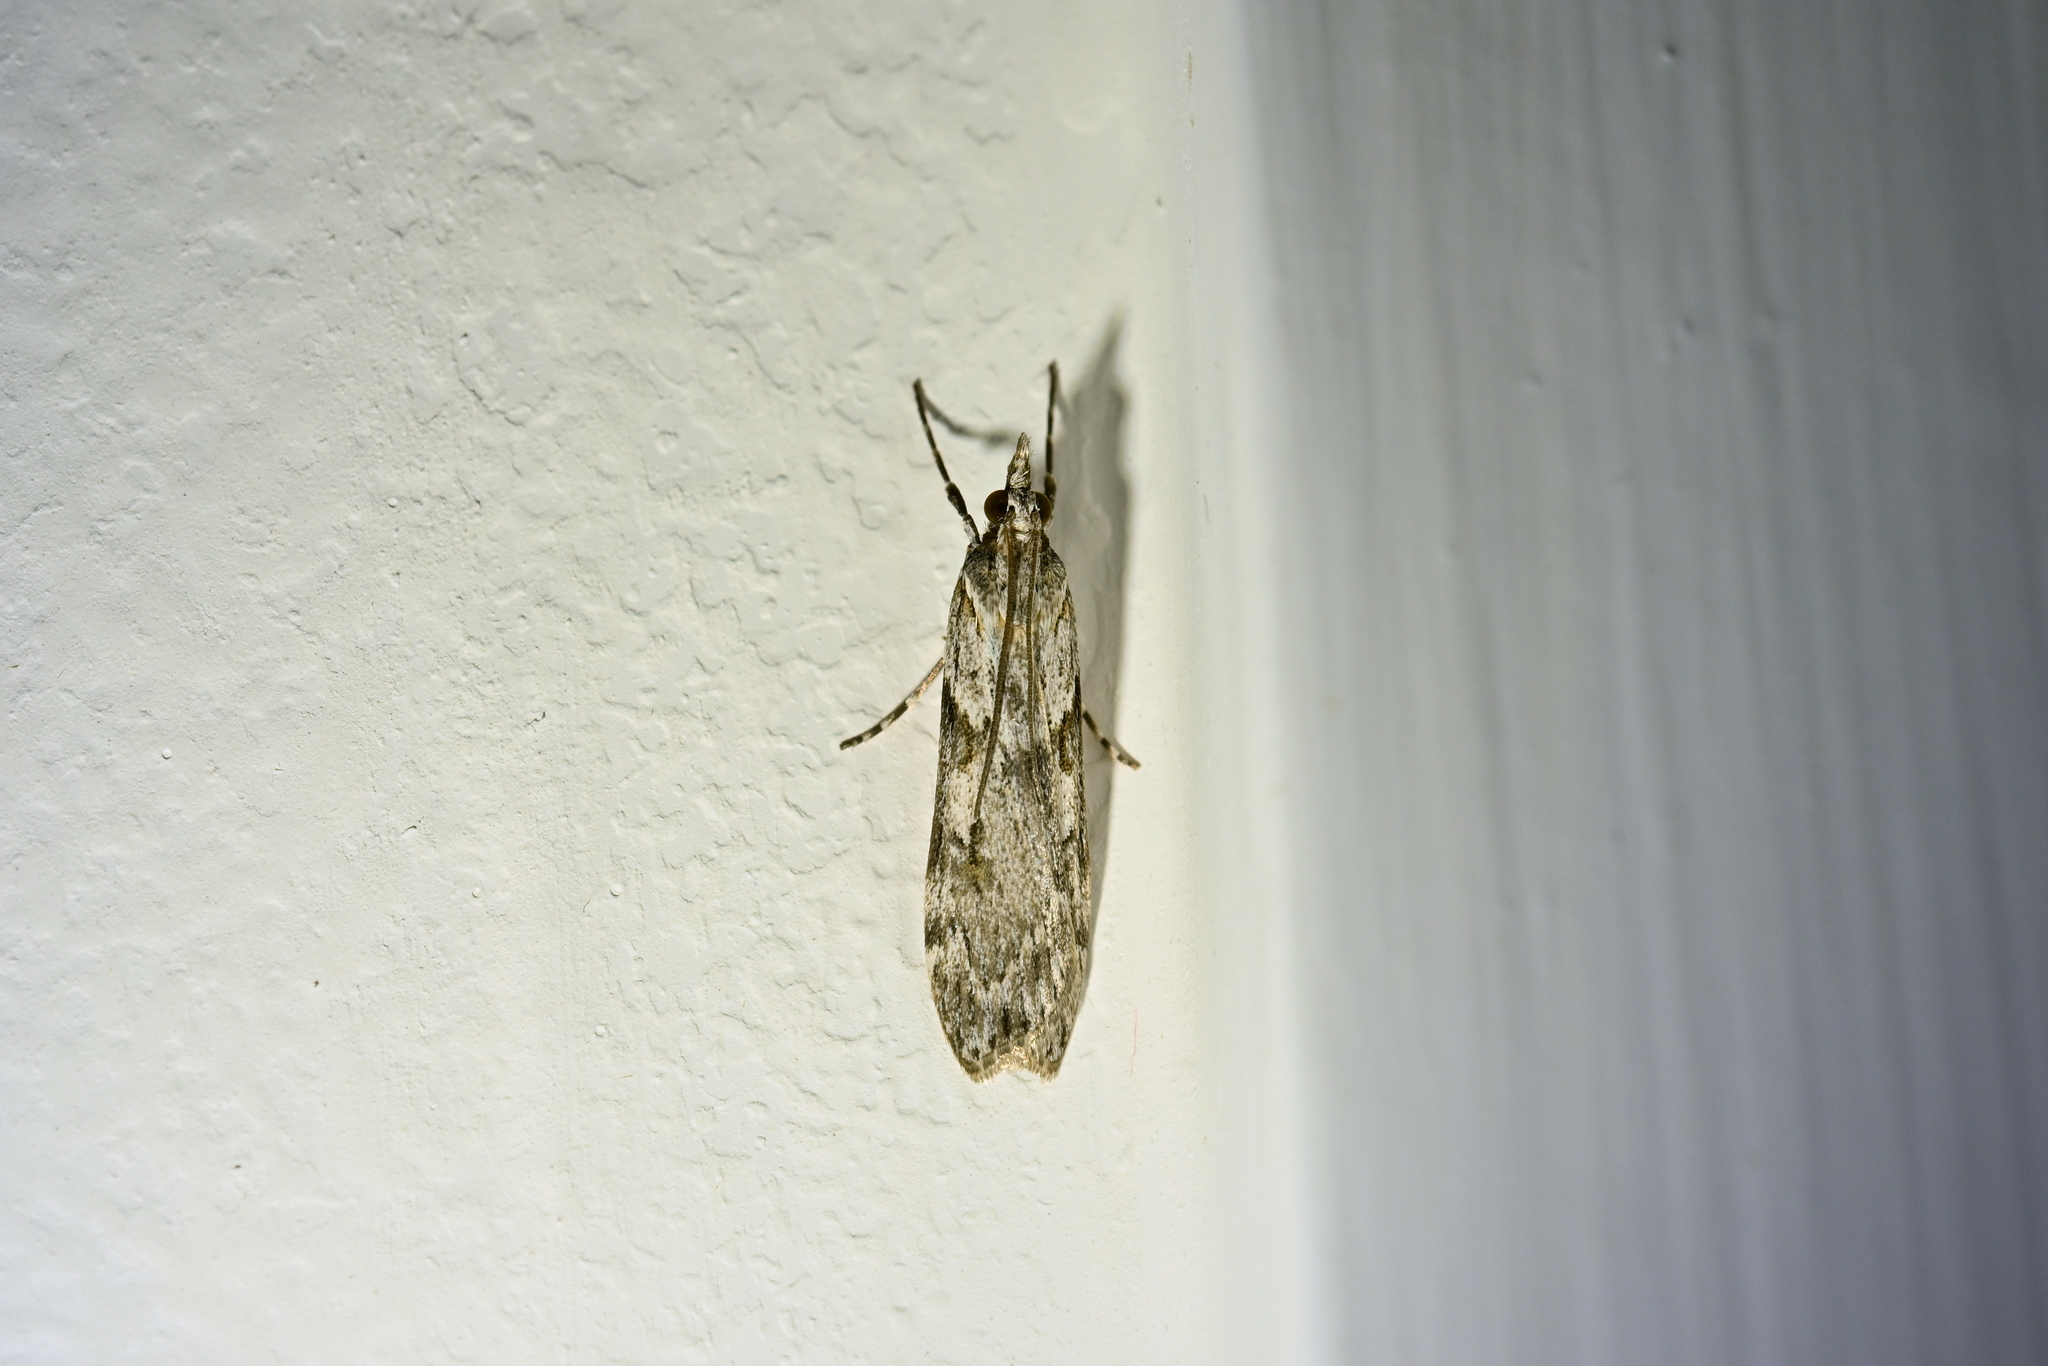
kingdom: Animalia
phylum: Arthropoda
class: Insecta
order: Lepidoptera
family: Crambidae
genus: Scoparia
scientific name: Scoparia halopis
